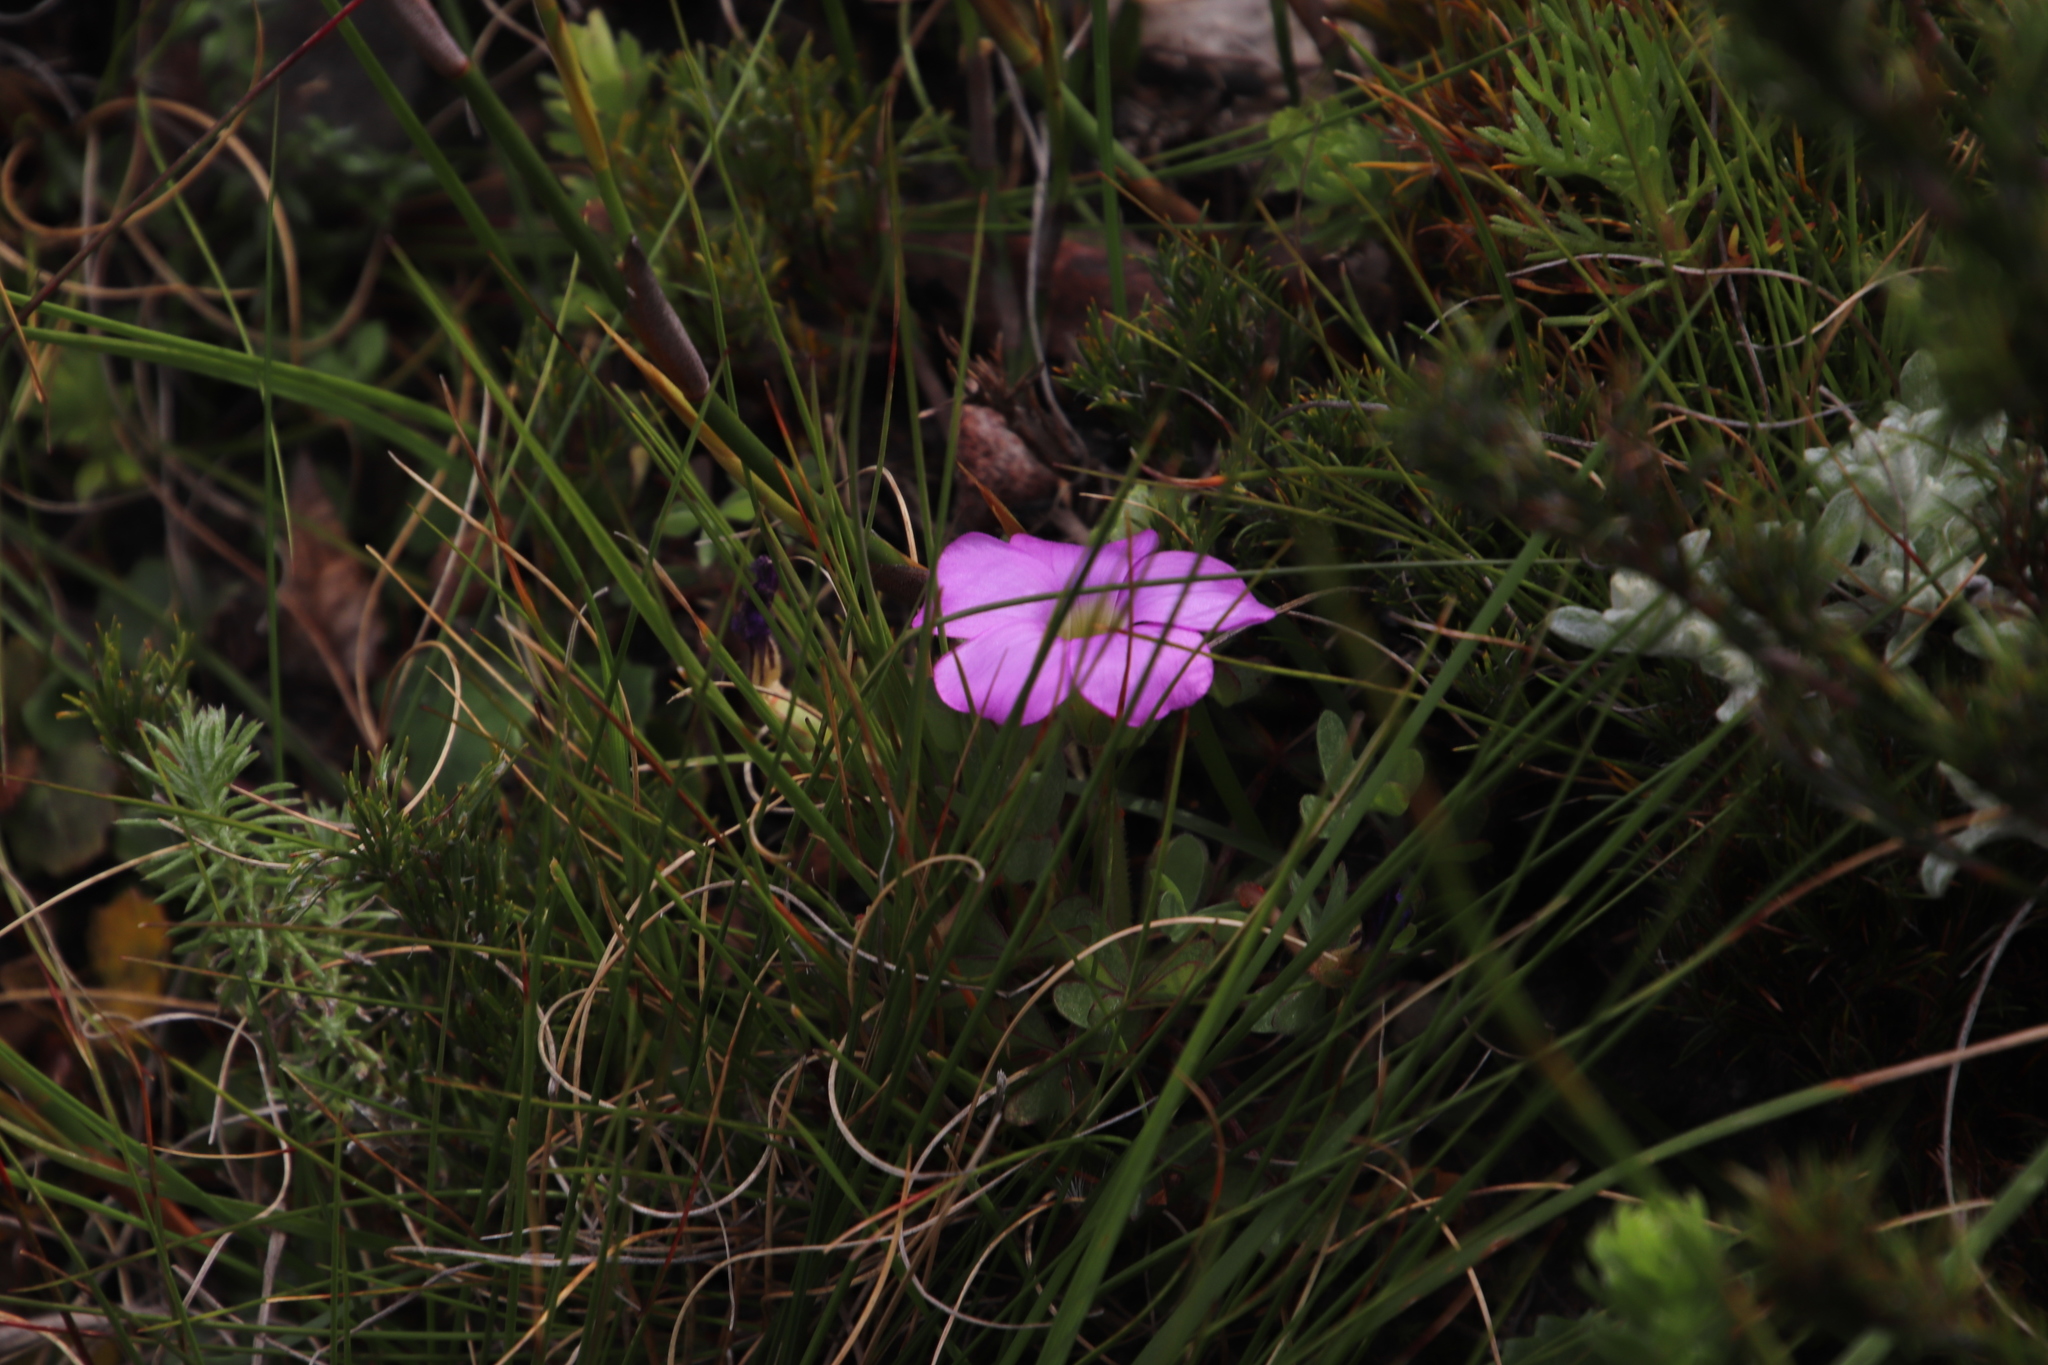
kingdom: Plantae
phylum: Tracheophyta
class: Magnoliopsida
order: Oxalidales
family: Oxalidaceae
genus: Oxalis
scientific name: Oxalis heterophylla
